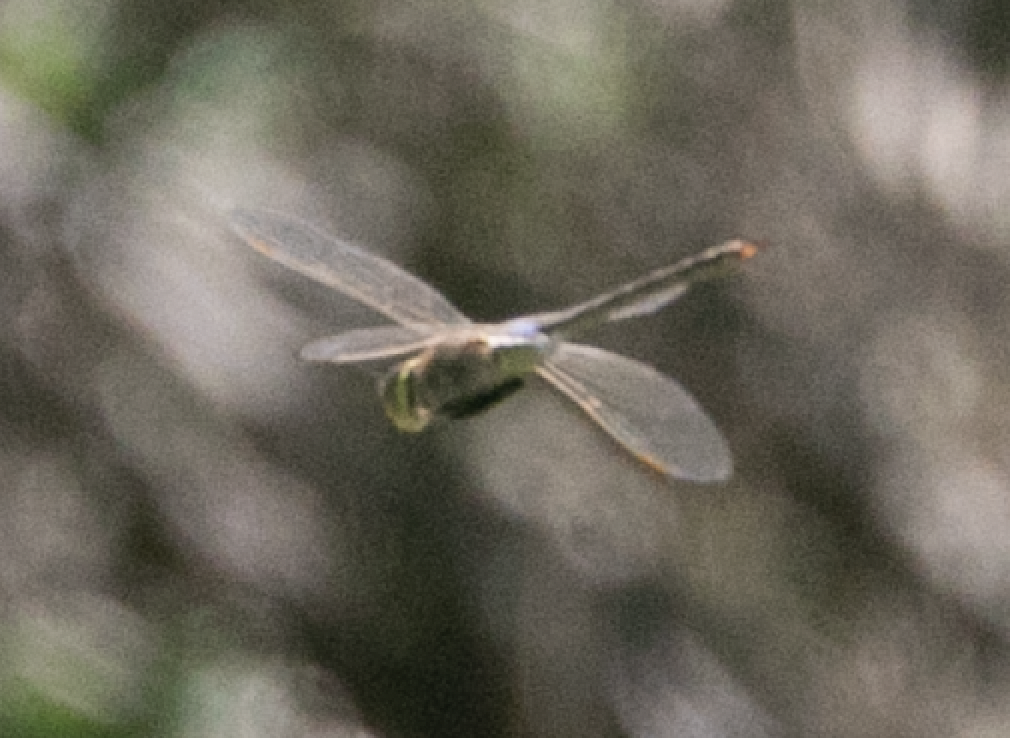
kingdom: Animalia
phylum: Arthropoda
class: Insecta
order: Odonata
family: Aeshnidae
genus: Anax
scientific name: Anax ephippiger
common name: Vagrant emperor
